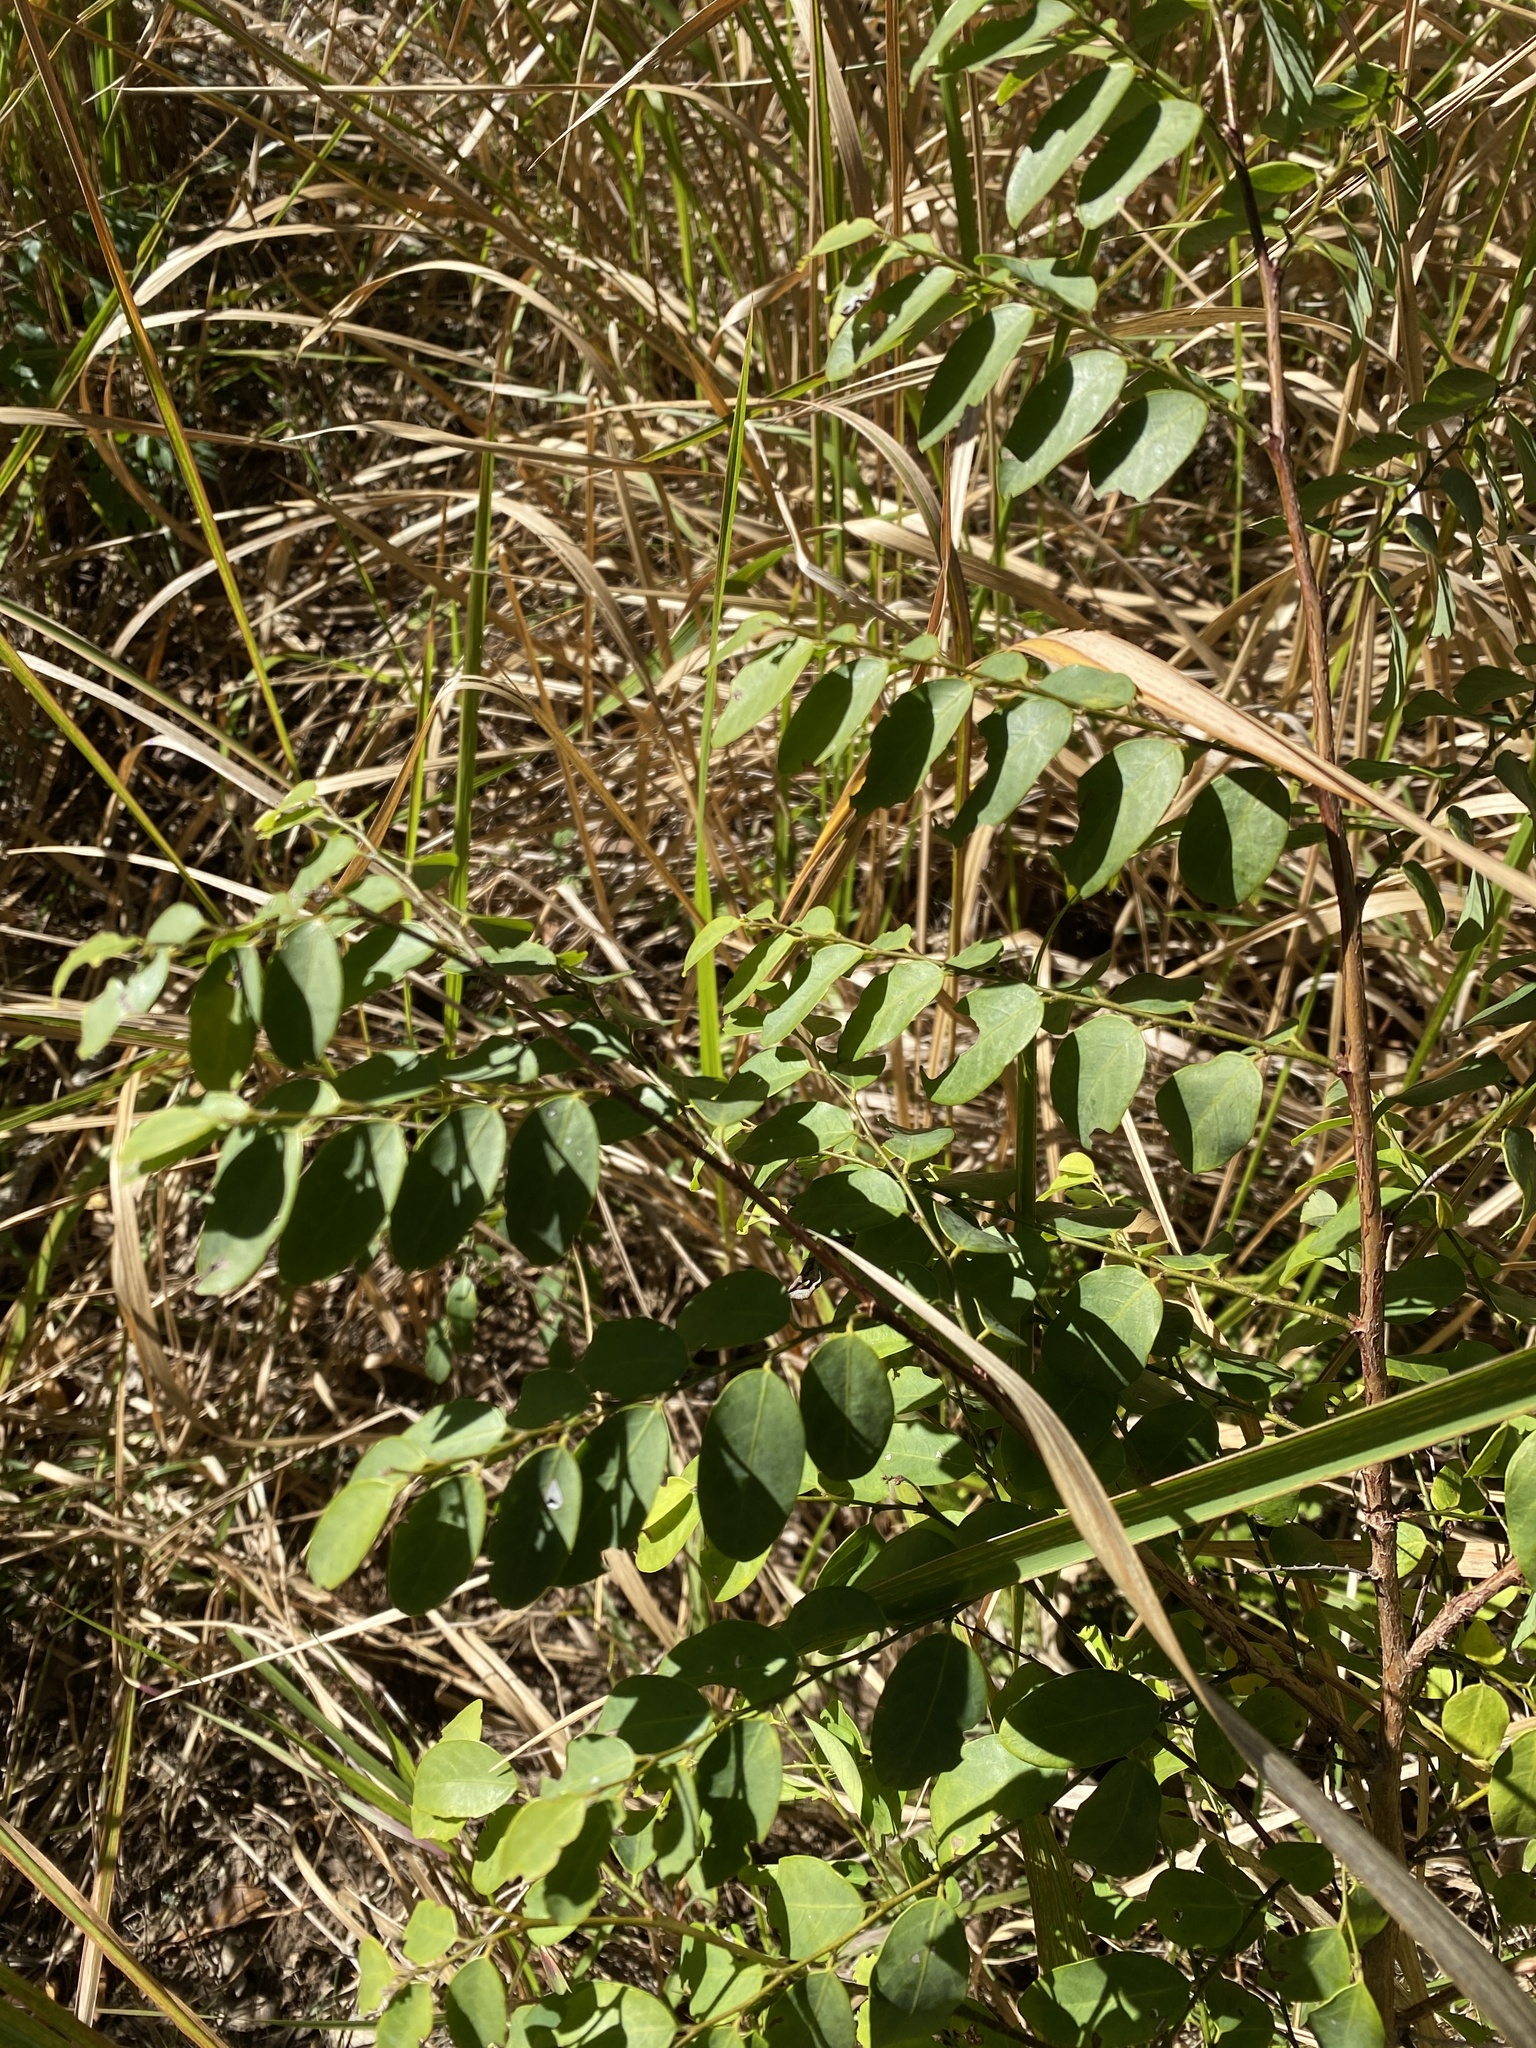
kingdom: Plantae
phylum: Tracheophyta
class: Magnoliopsida
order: Malpighiales
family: Phyllanthaceae
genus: Breynia
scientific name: Breynia oblongifolia
